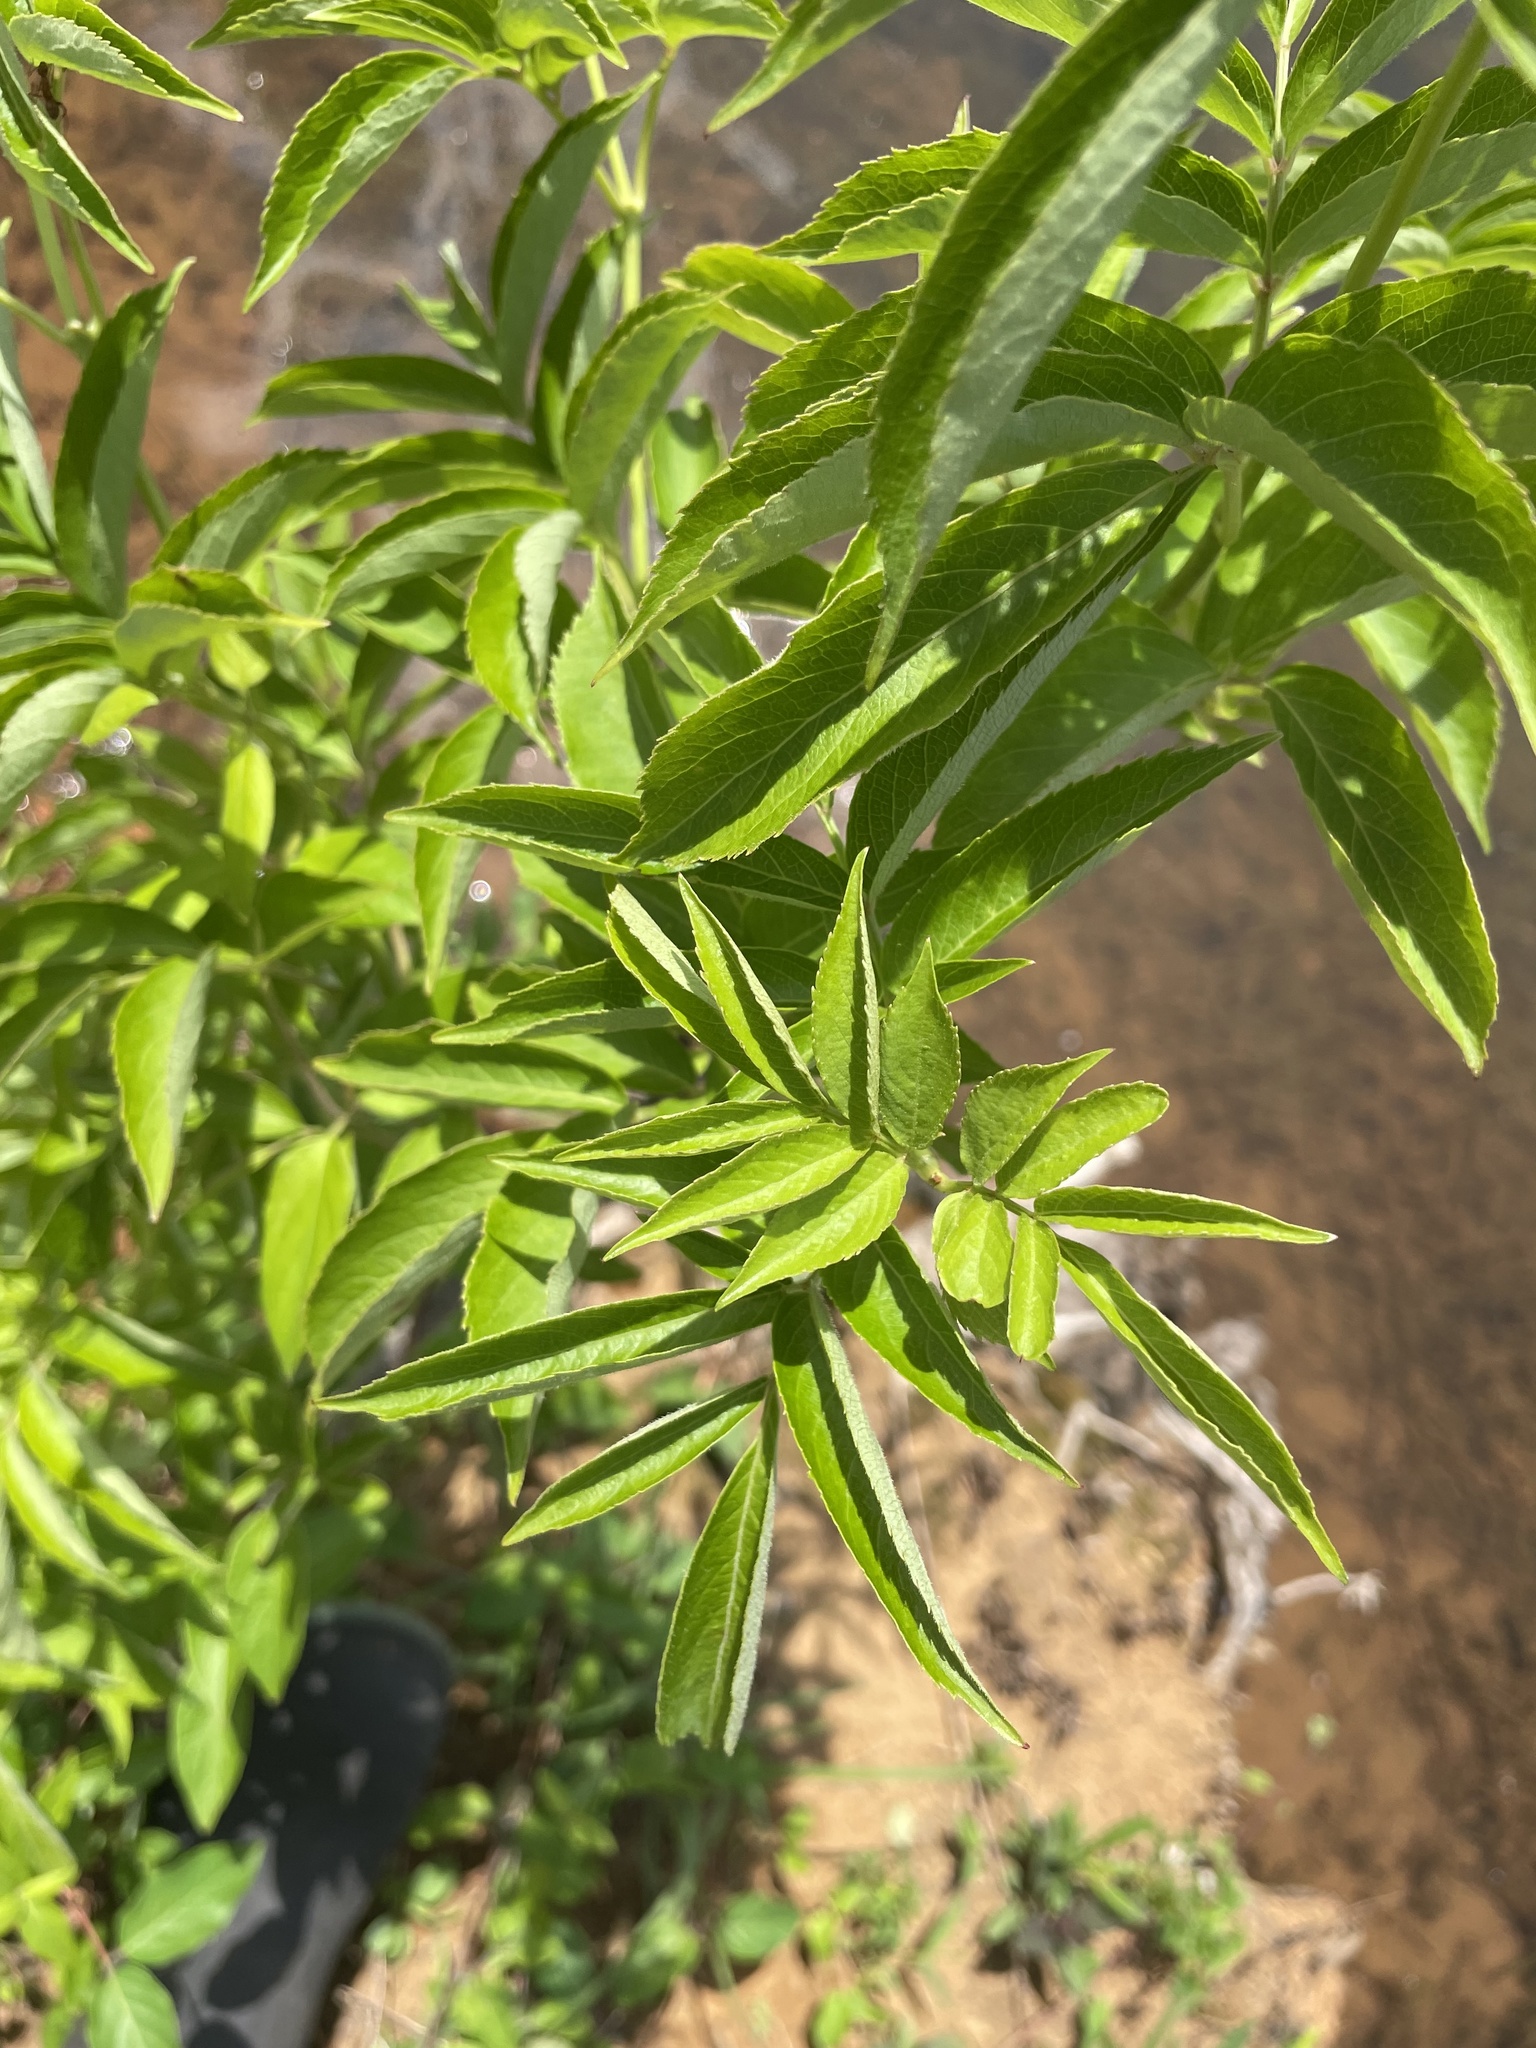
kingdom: Plantae
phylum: Tracheophyta
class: Magnoliopsida
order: Dipsacales
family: Viburnaceae
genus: Sambucus
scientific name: Sambucus canadensis
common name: American elder
